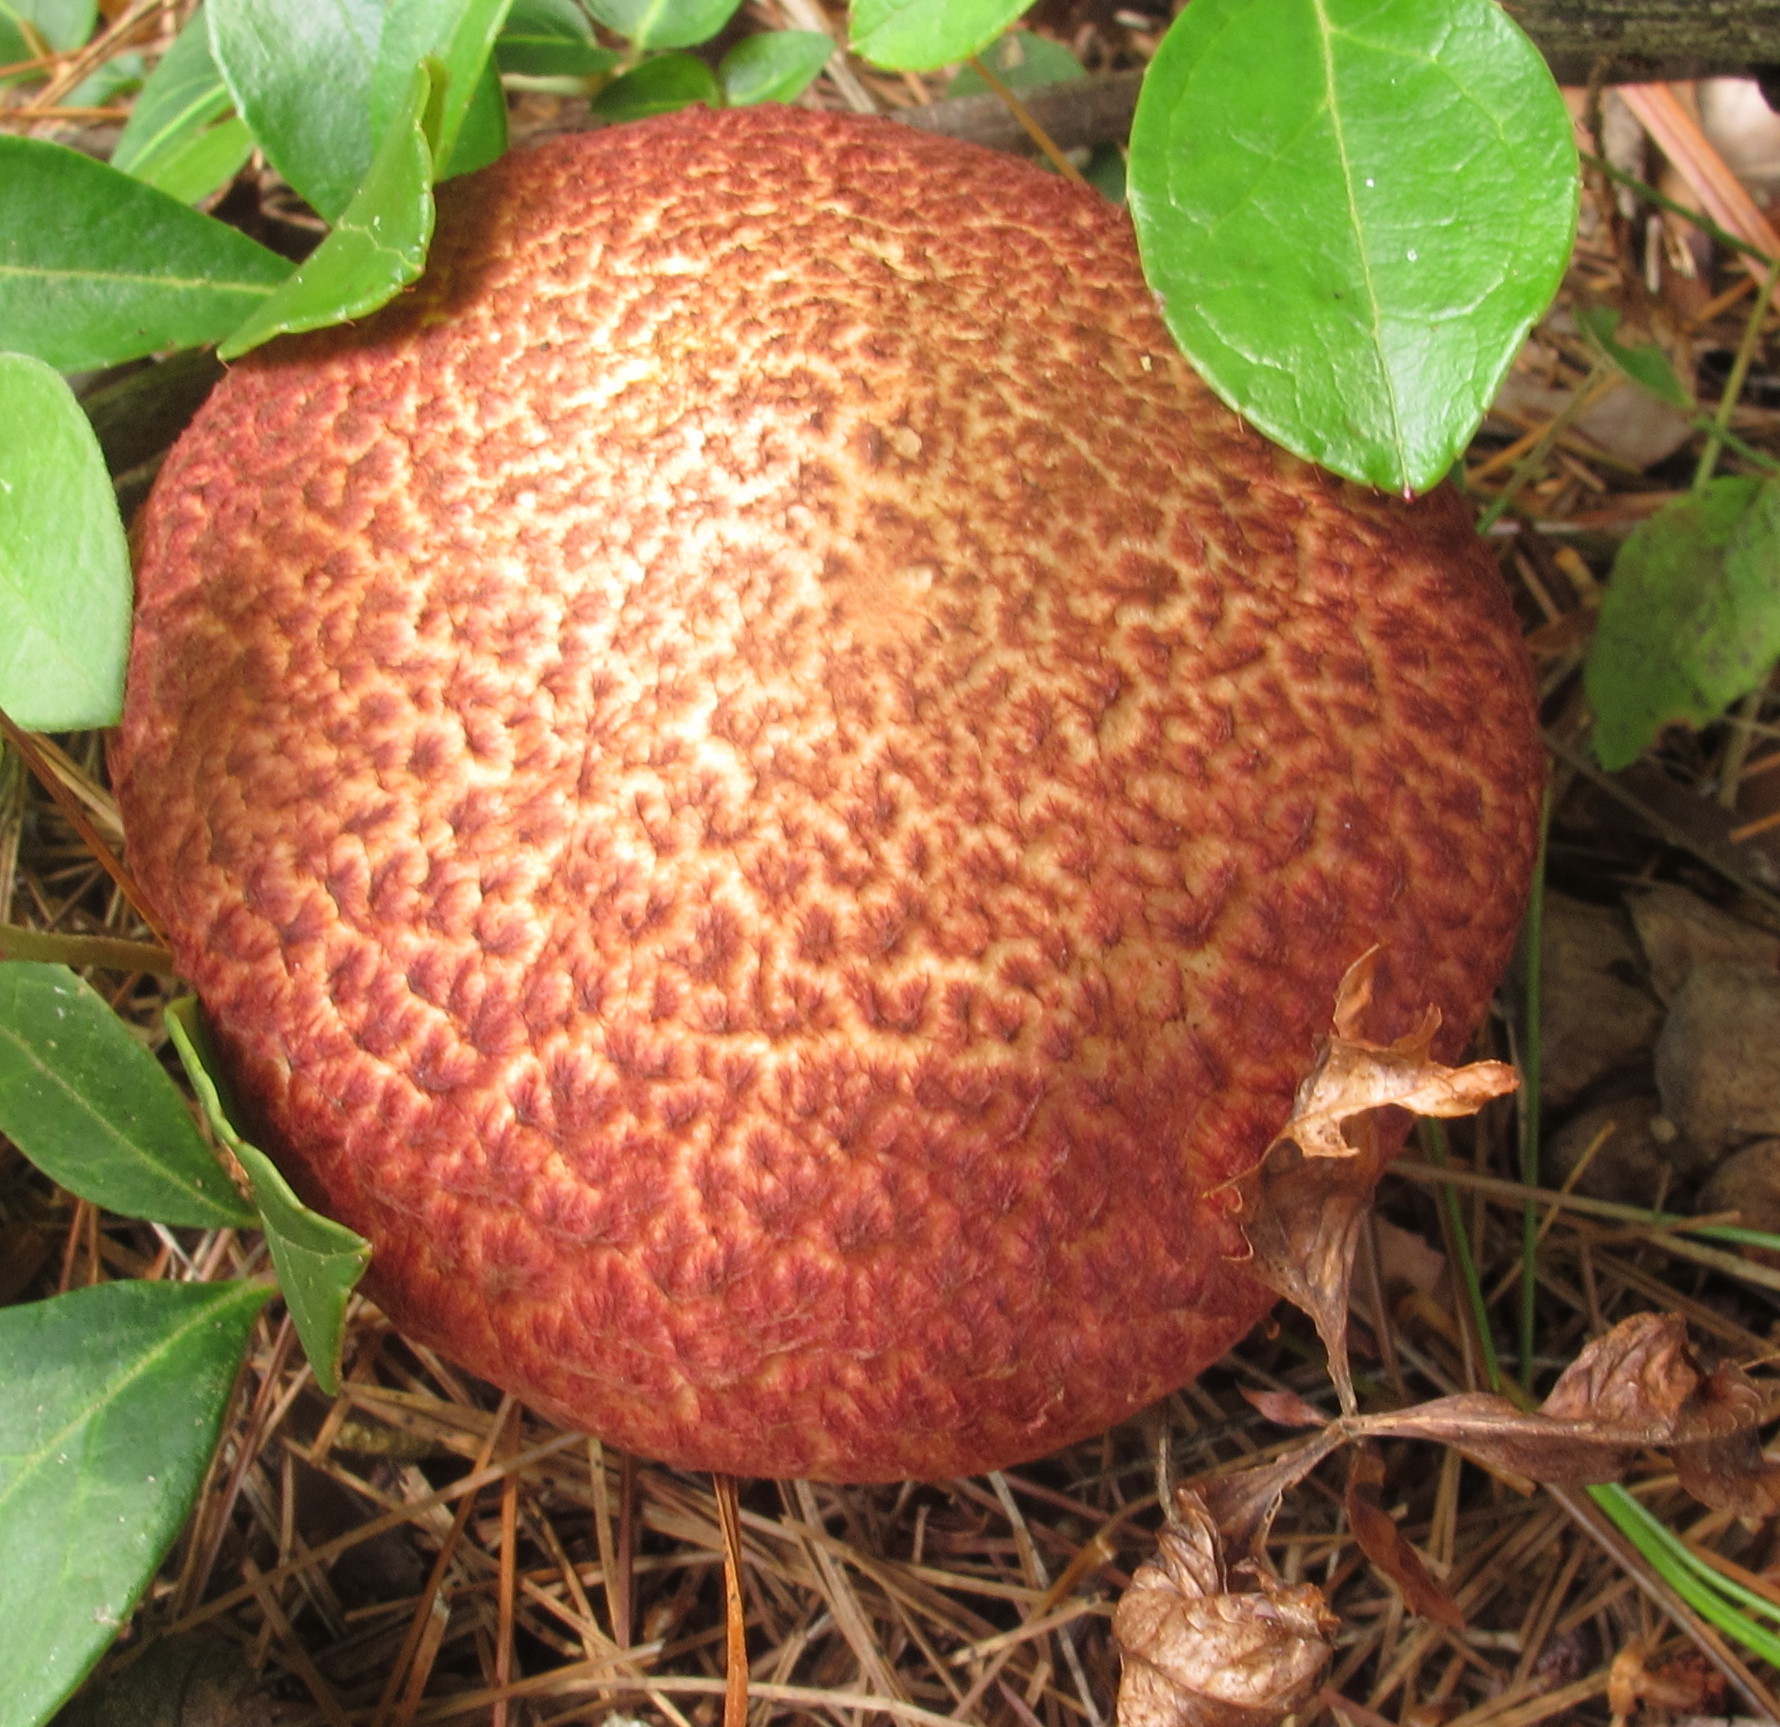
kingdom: Fungi
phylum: Basidiomycota
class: Agaricomycetes
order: Boletales
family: Suillaceae
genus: Suillus
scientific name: Suillus spraguei
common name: Painted suillus
